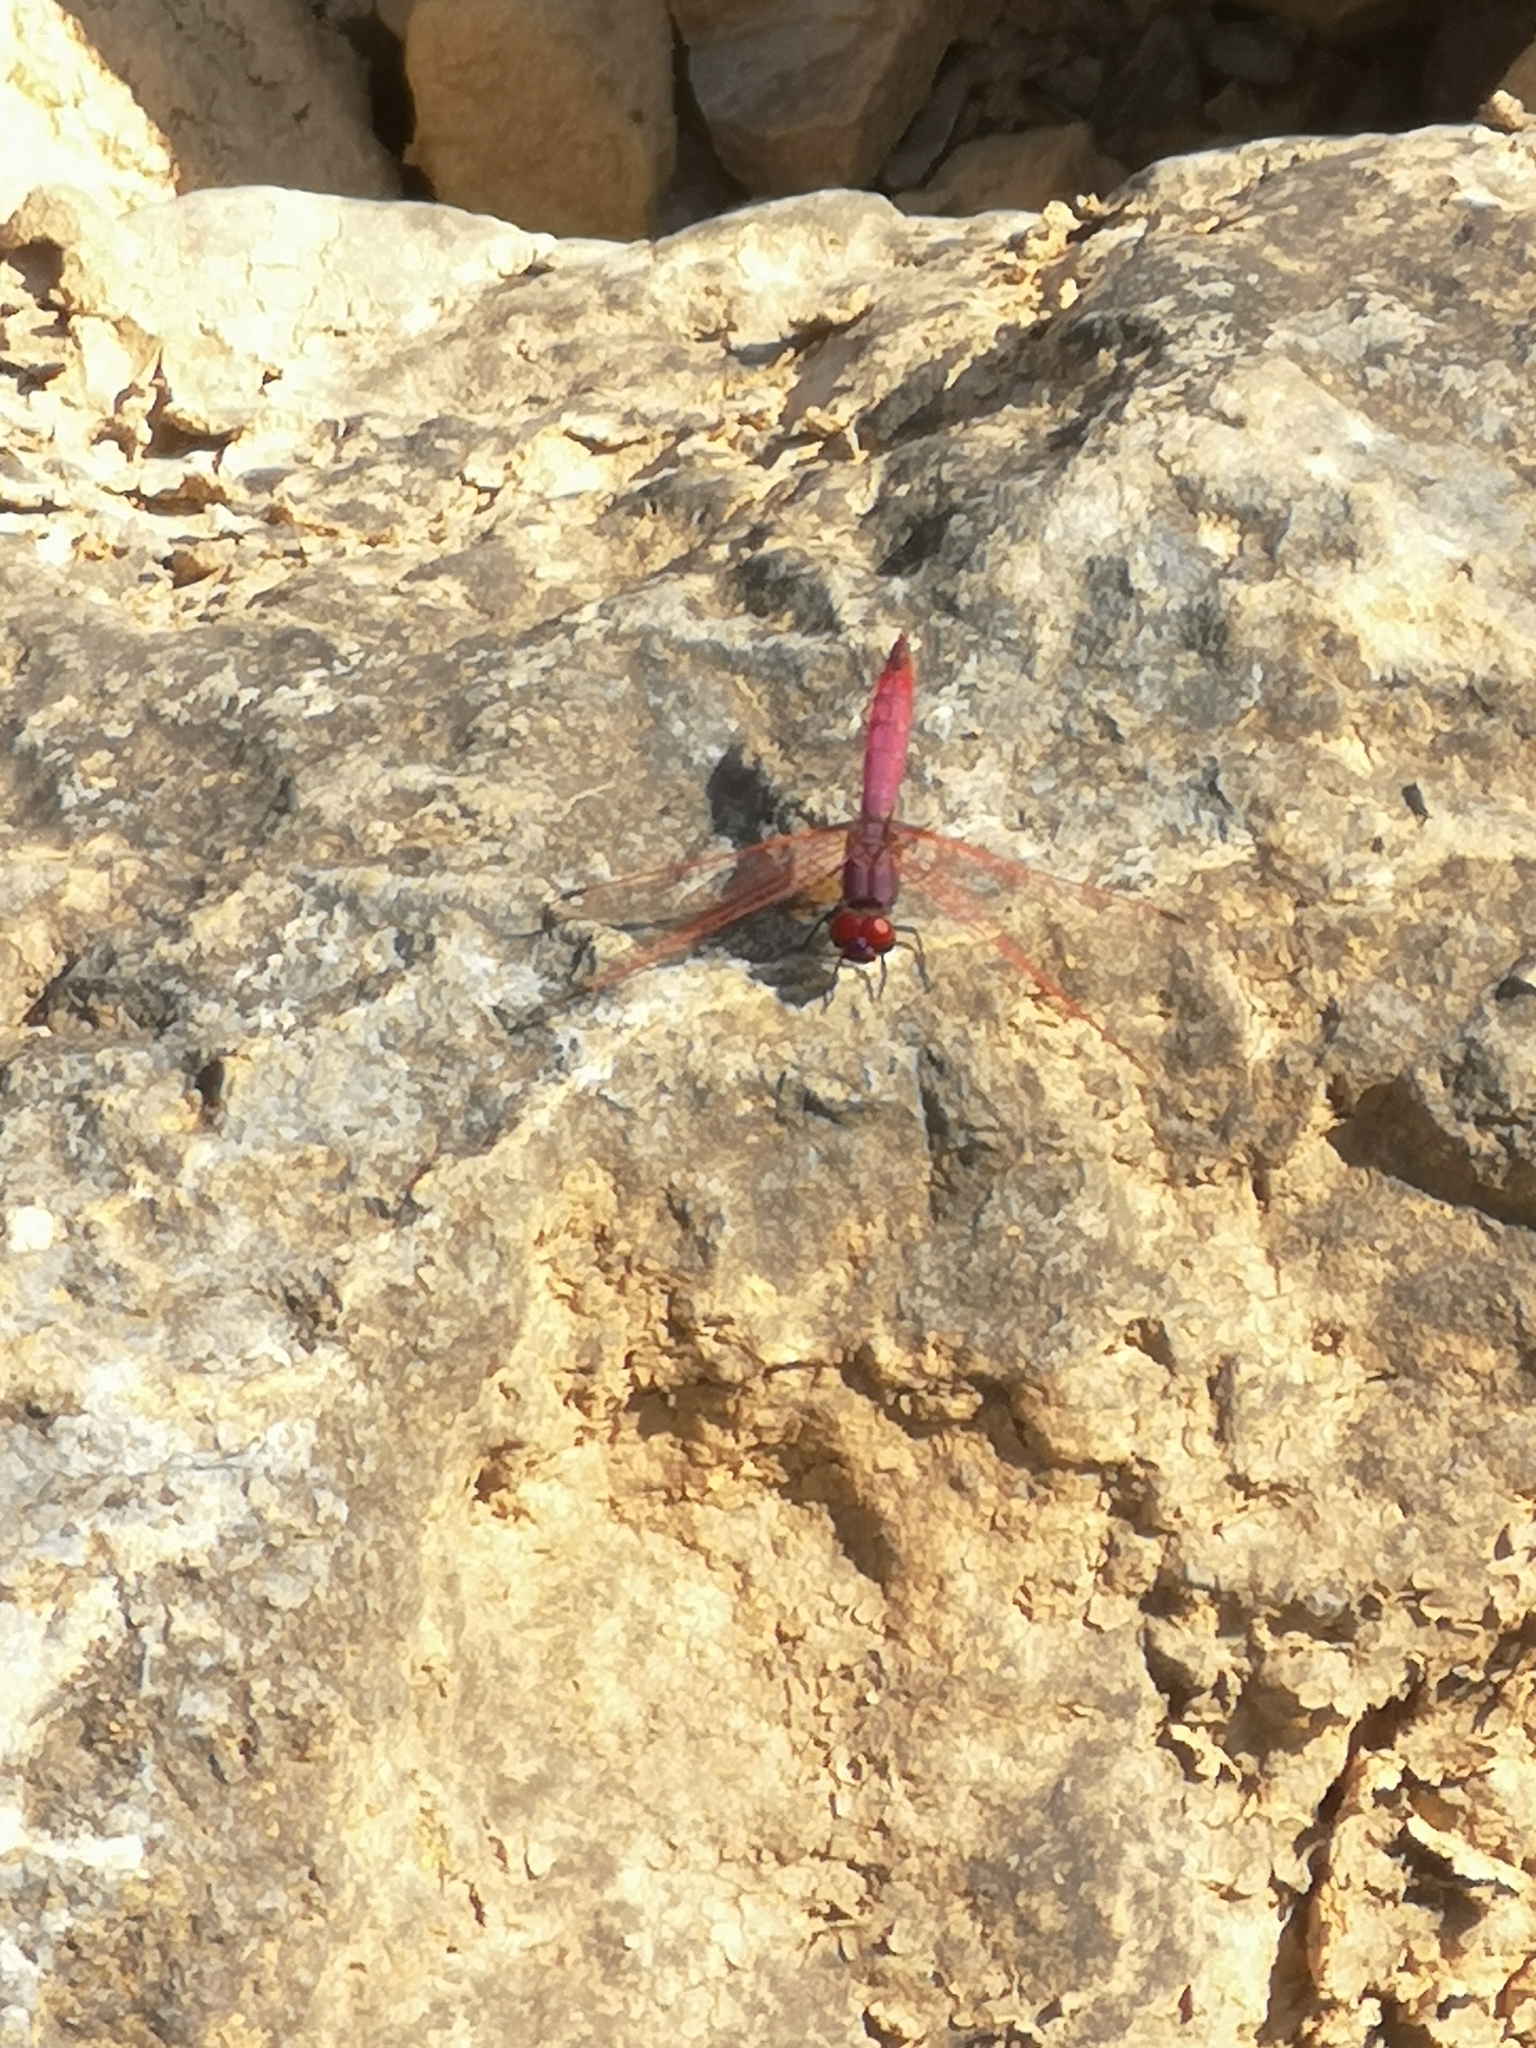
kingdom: Animalia
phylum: Arthropoda
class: Insecta
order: Odonata
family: Libellulidae
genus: Trithemis
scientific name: Trithemis annulata
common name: Violet dropwing
